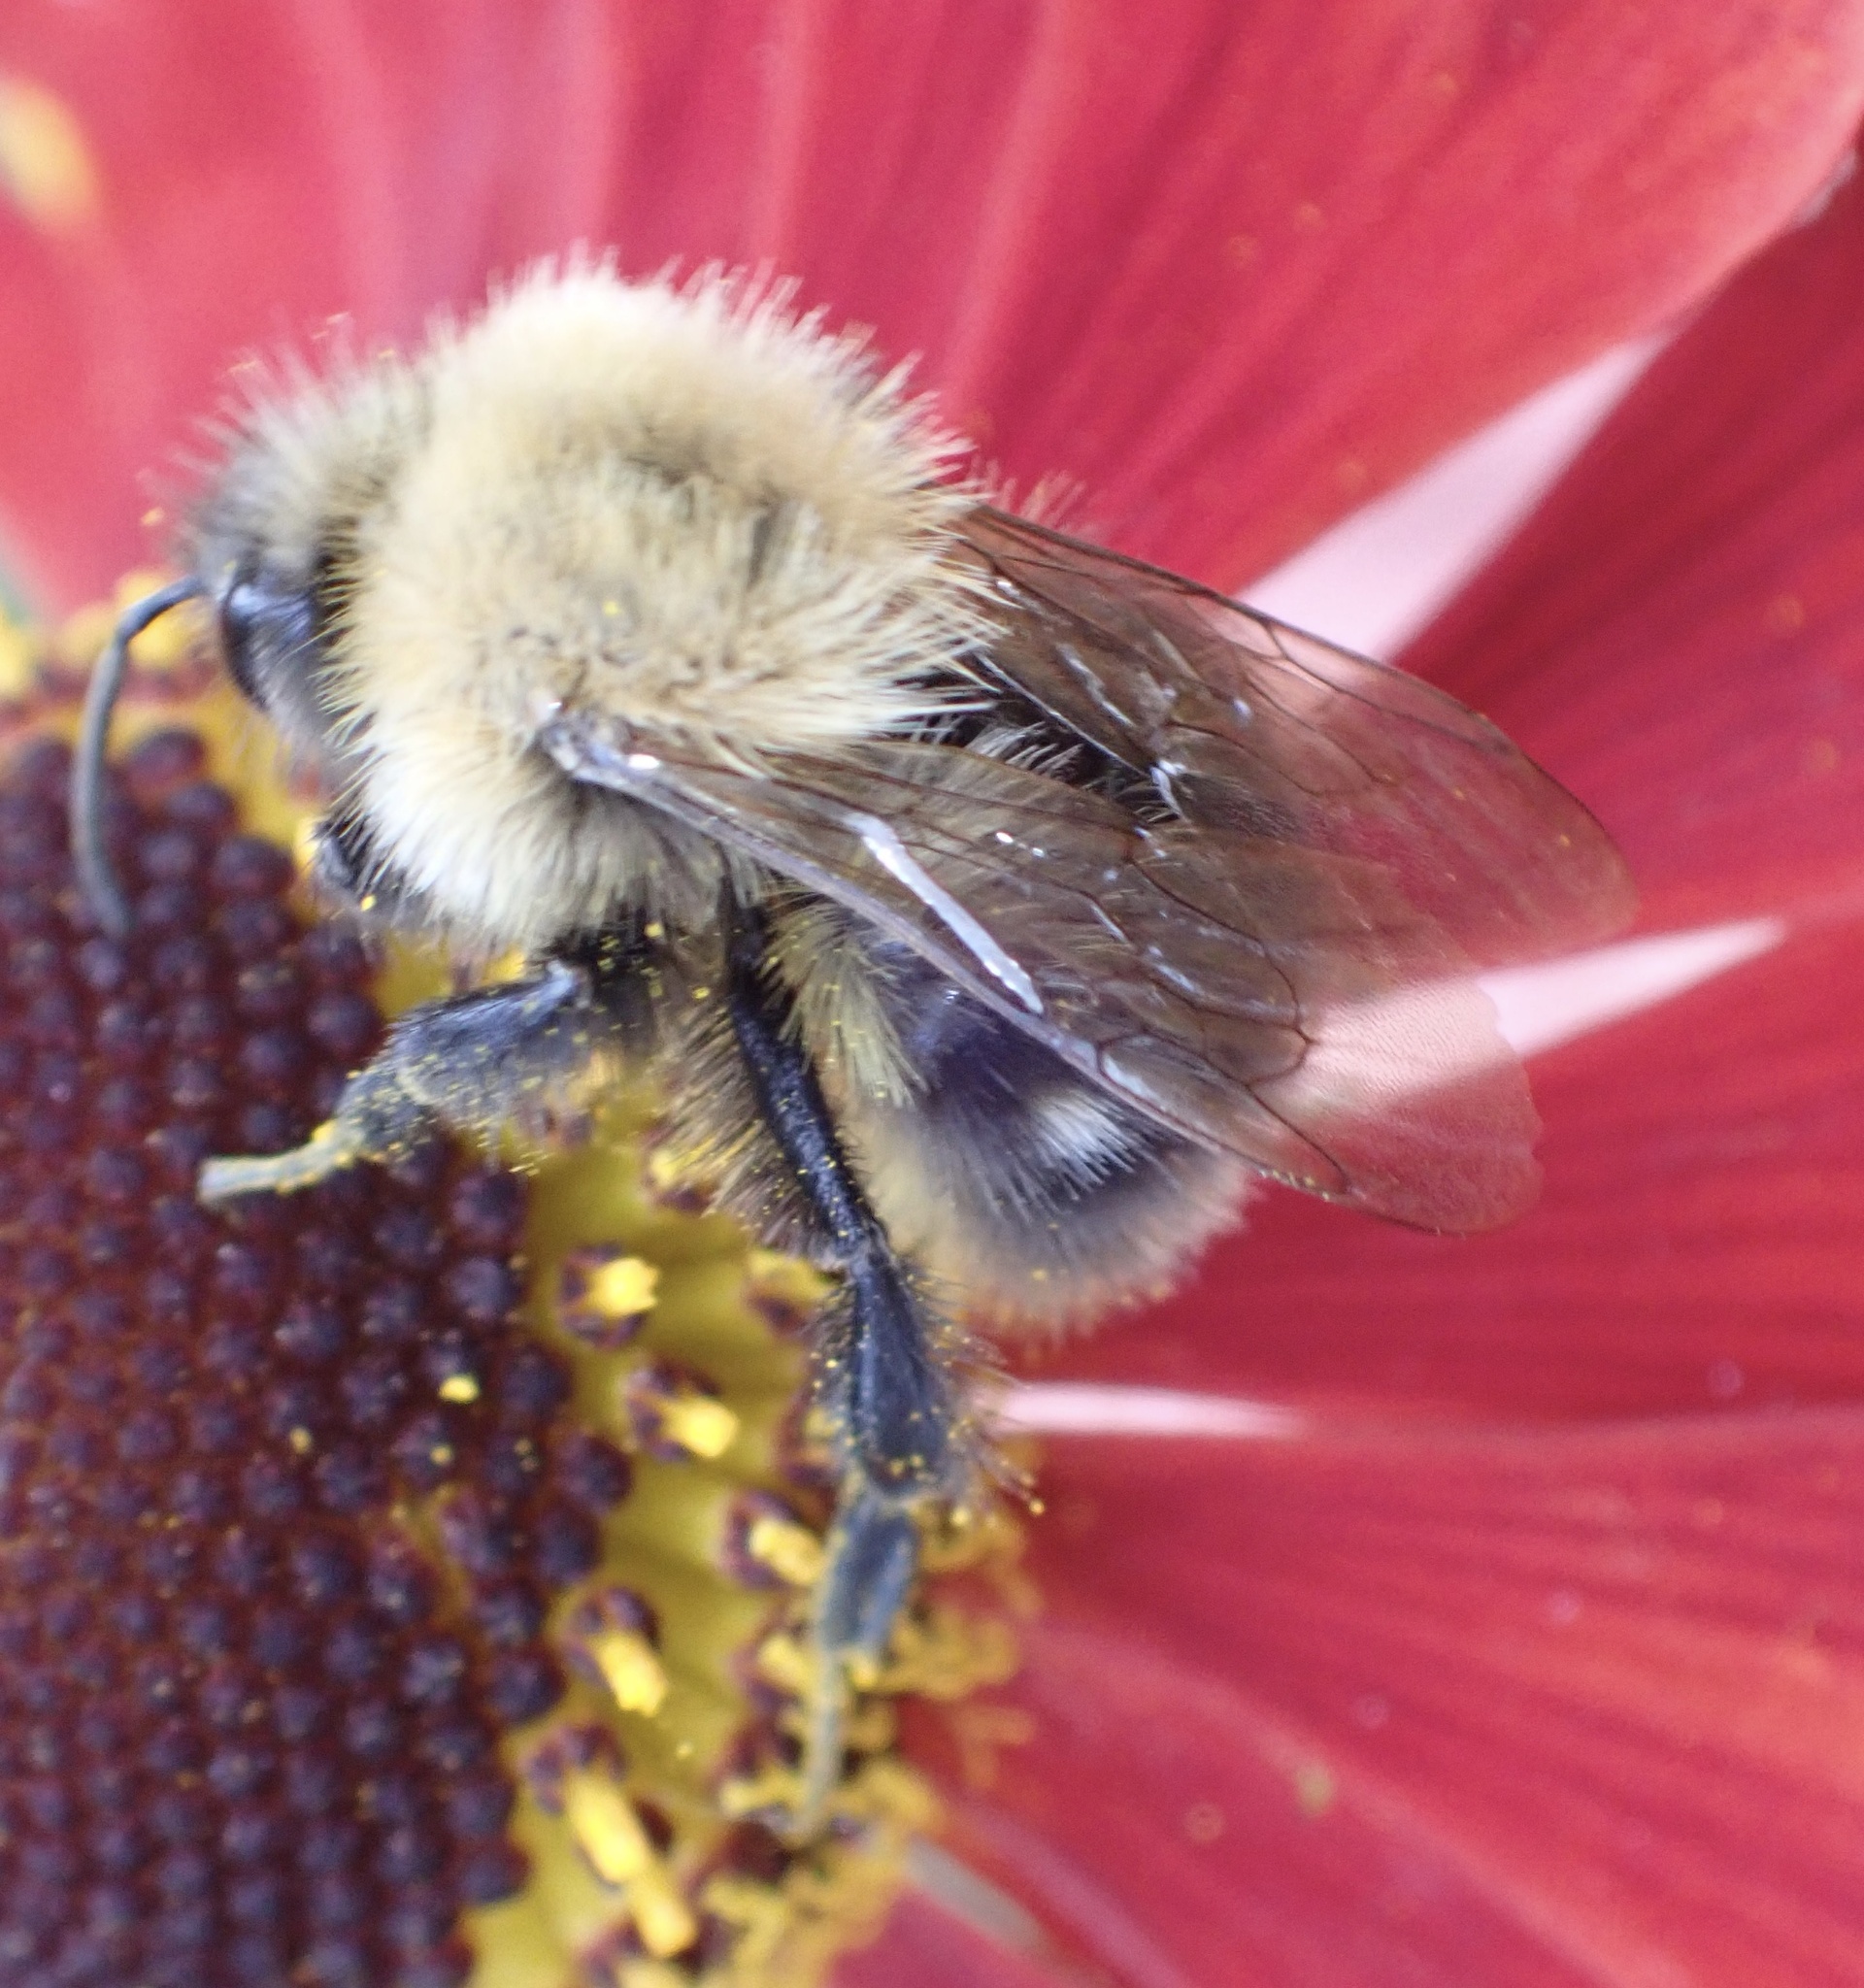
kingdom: Animalia
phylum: Arthropoda
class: Insecta
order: Hymenoptera
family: Apidae
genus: Bombus
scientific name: Bombus pascuorum
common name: Common carder bee
